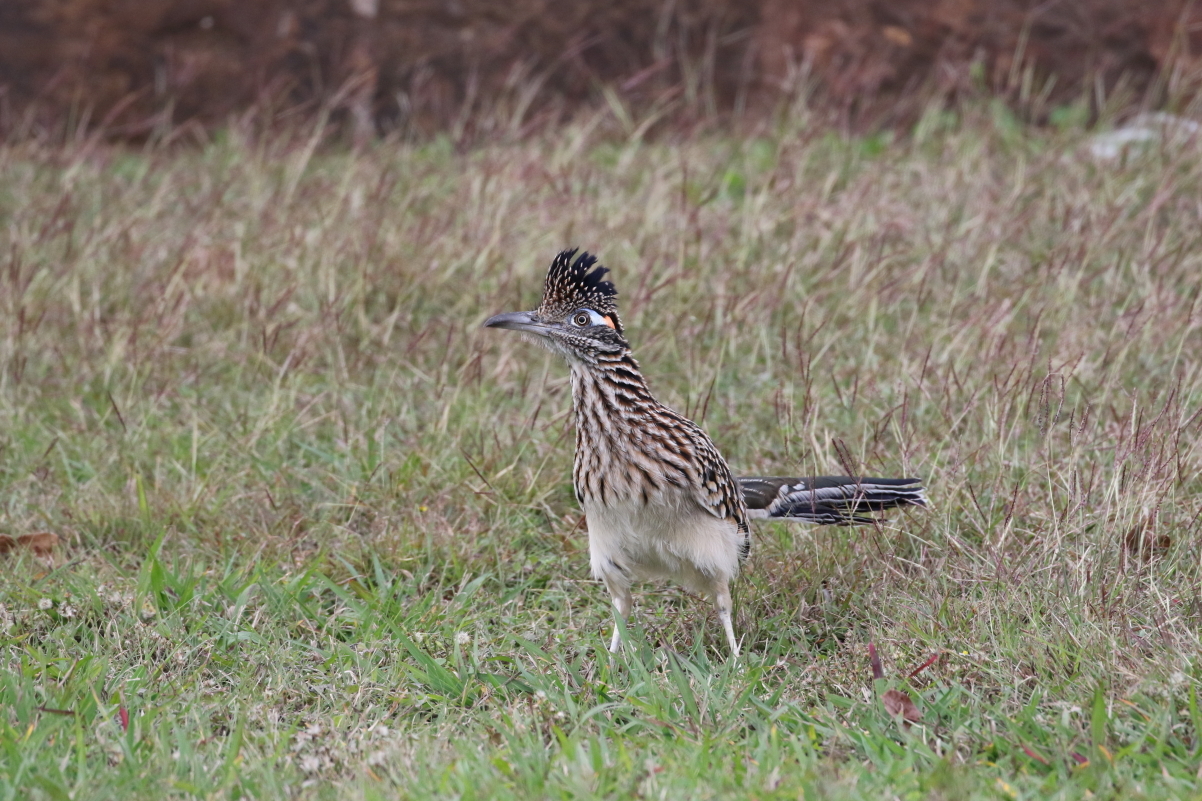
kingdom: Animalia
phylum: Chordata
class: Aves
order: Cuculiformes
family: Cuculidae
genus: Geococcyx
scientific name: Geococcyx californianus
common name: Greater roadrunner
